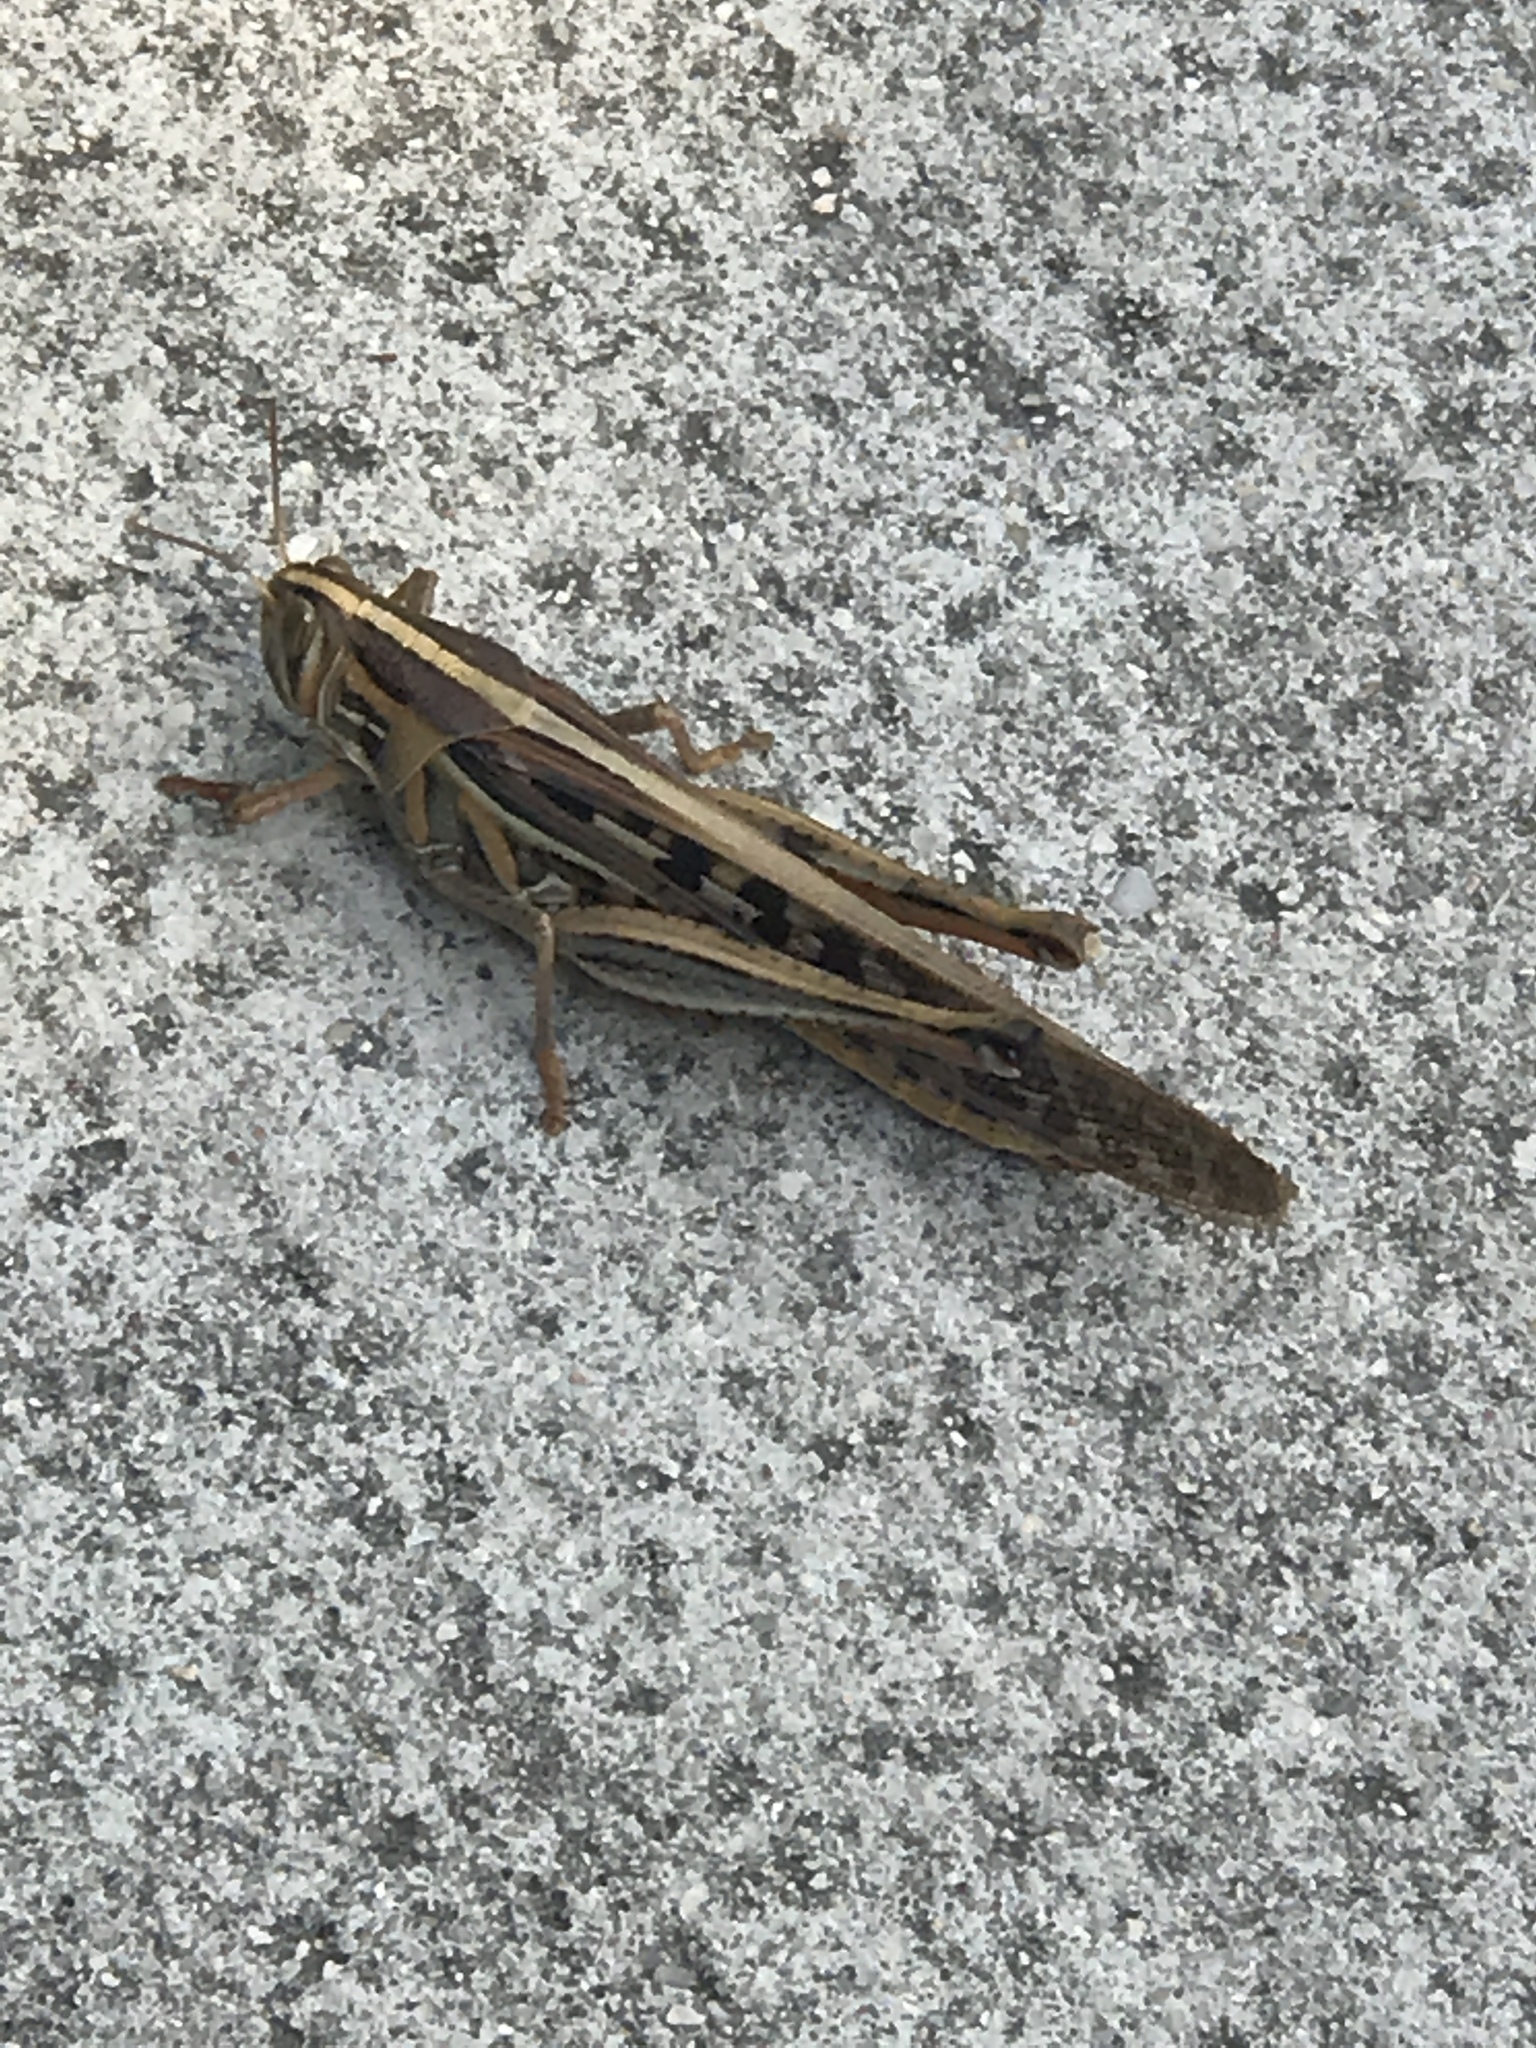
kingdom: Animalia
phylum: Arthropoda
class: Insecta
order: Orthoptera
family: Acrididae
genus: Schistocerca
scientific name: Schistocerca americana
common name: American bird locust
